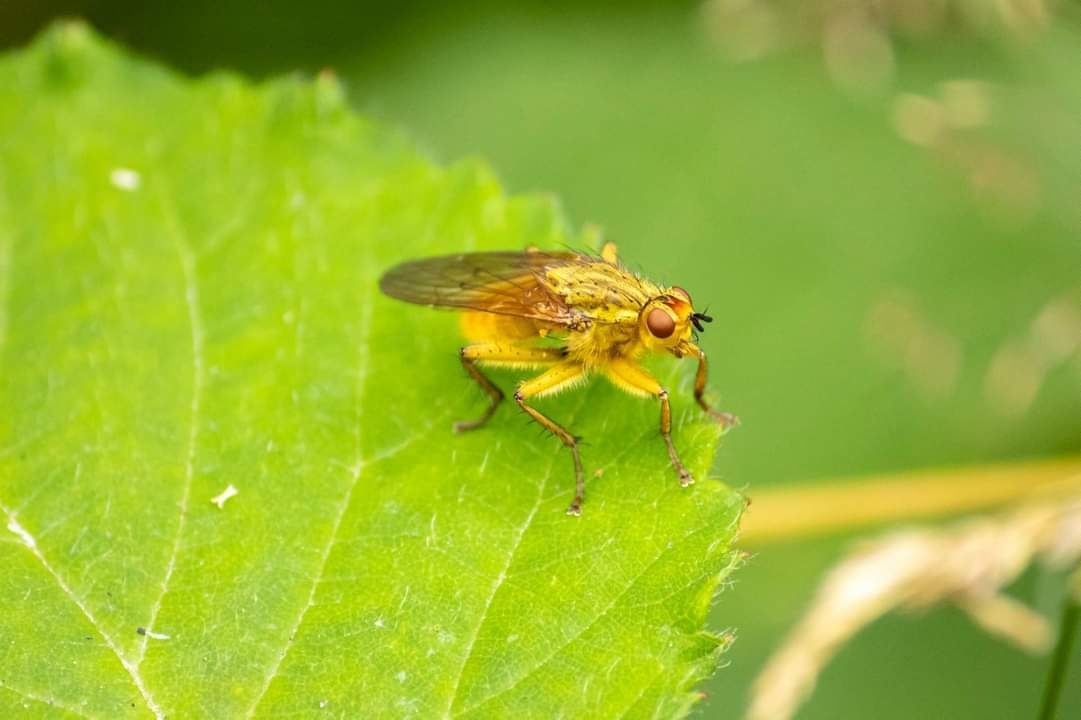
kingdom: Animalia
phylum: Arthropoda
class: Insecta
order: Diptera
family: Scathophagidae
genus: Scathophaga
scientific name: Scathophaga stercoraria
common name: Yellow dung fly
